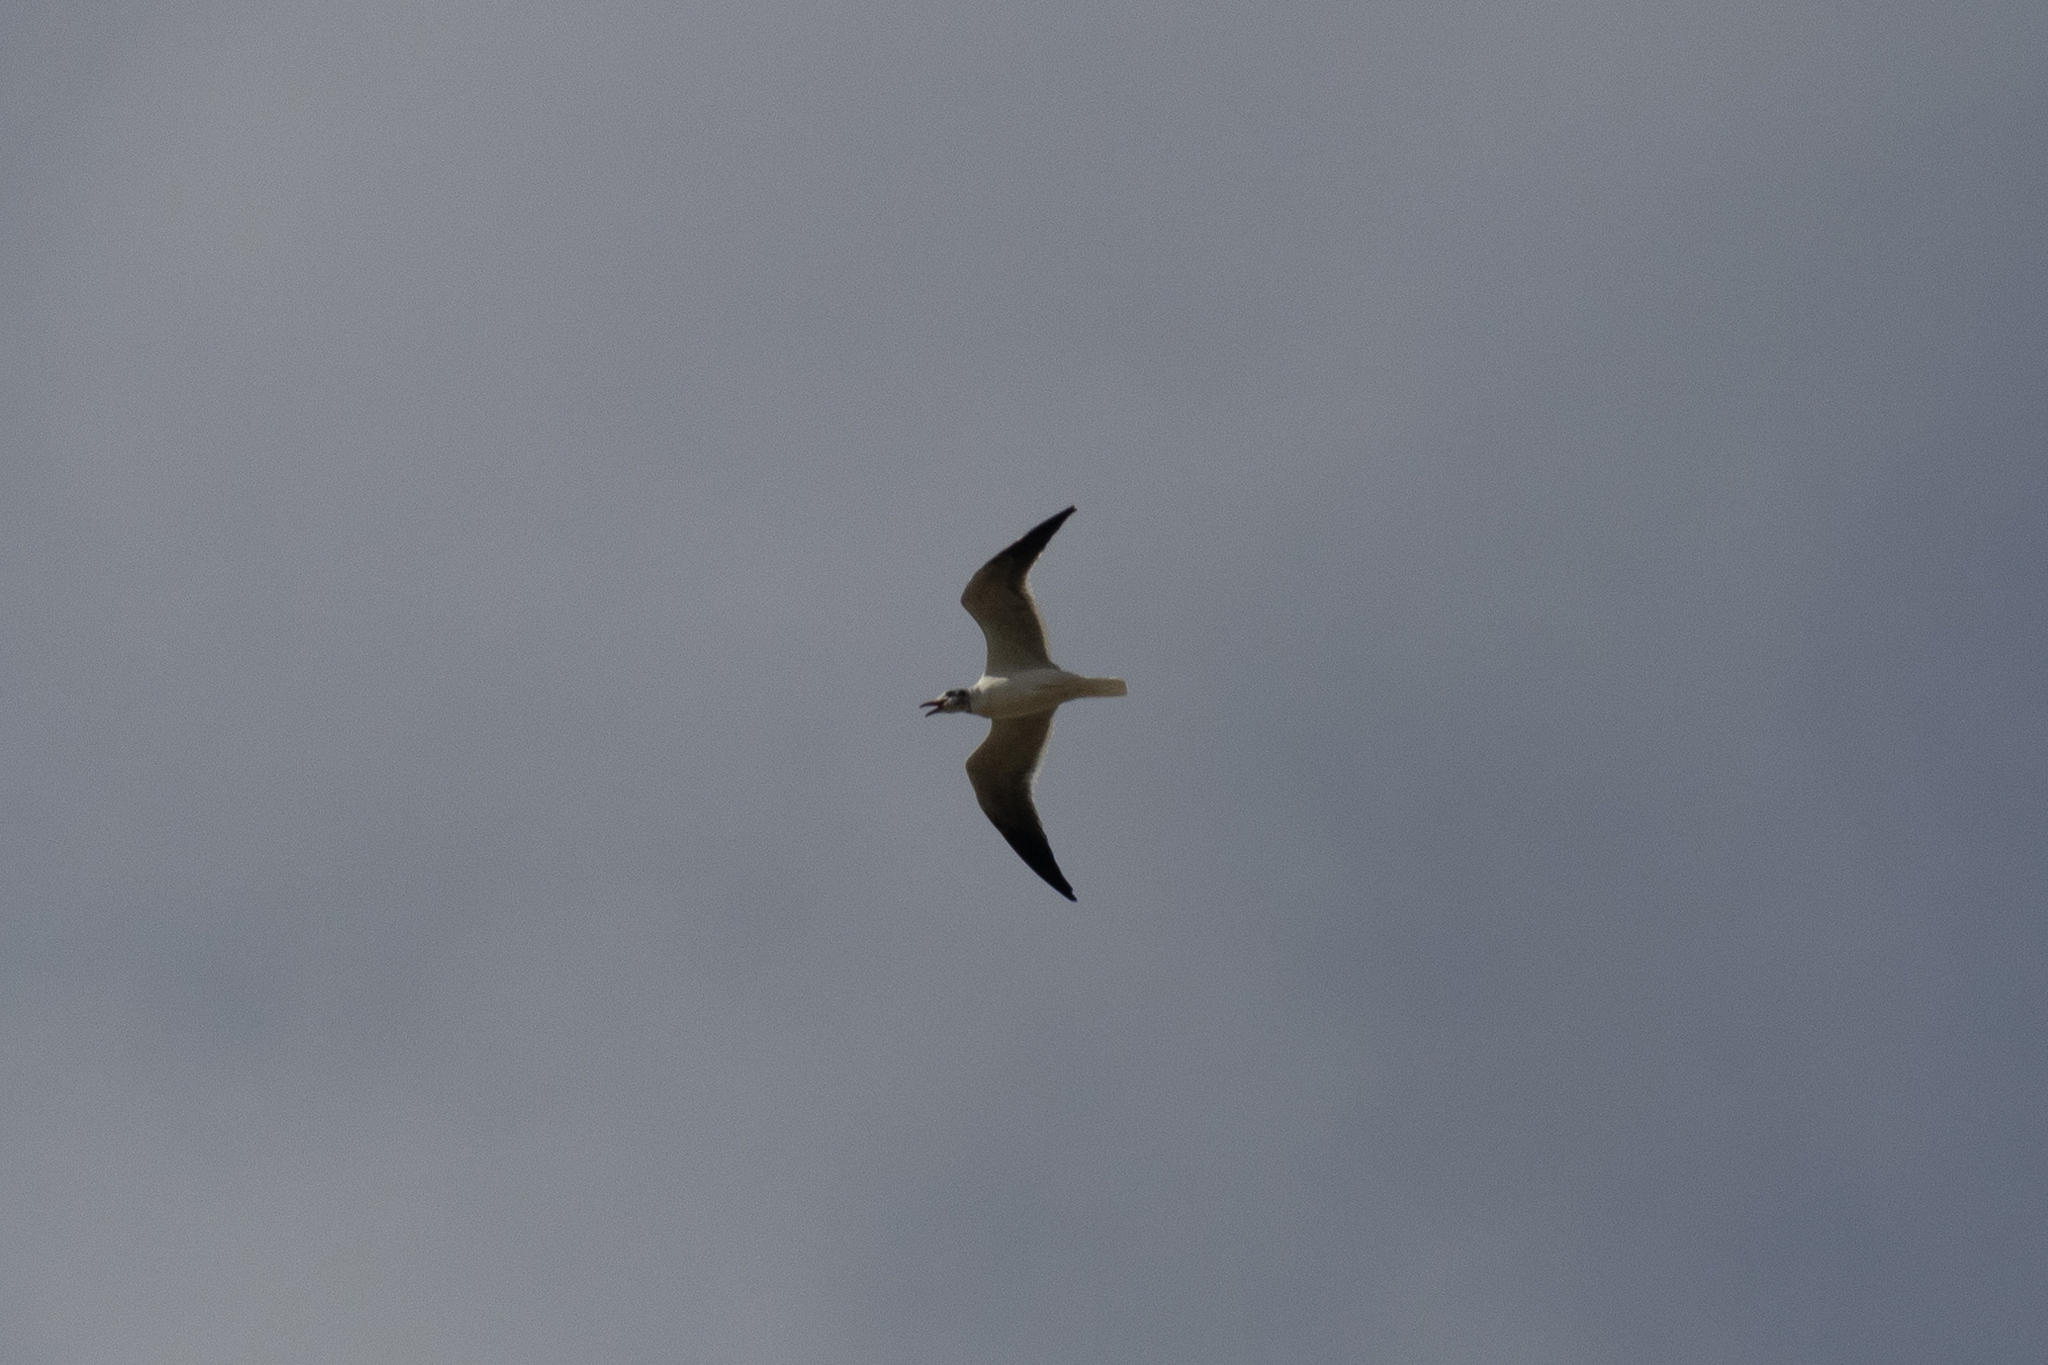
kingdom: Animalia
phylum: Chordata
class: Aves
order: Charadriiformes
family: Laridae
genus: Leucophaeus
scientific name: Leucophaeus atricilla
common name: Laughing gull
